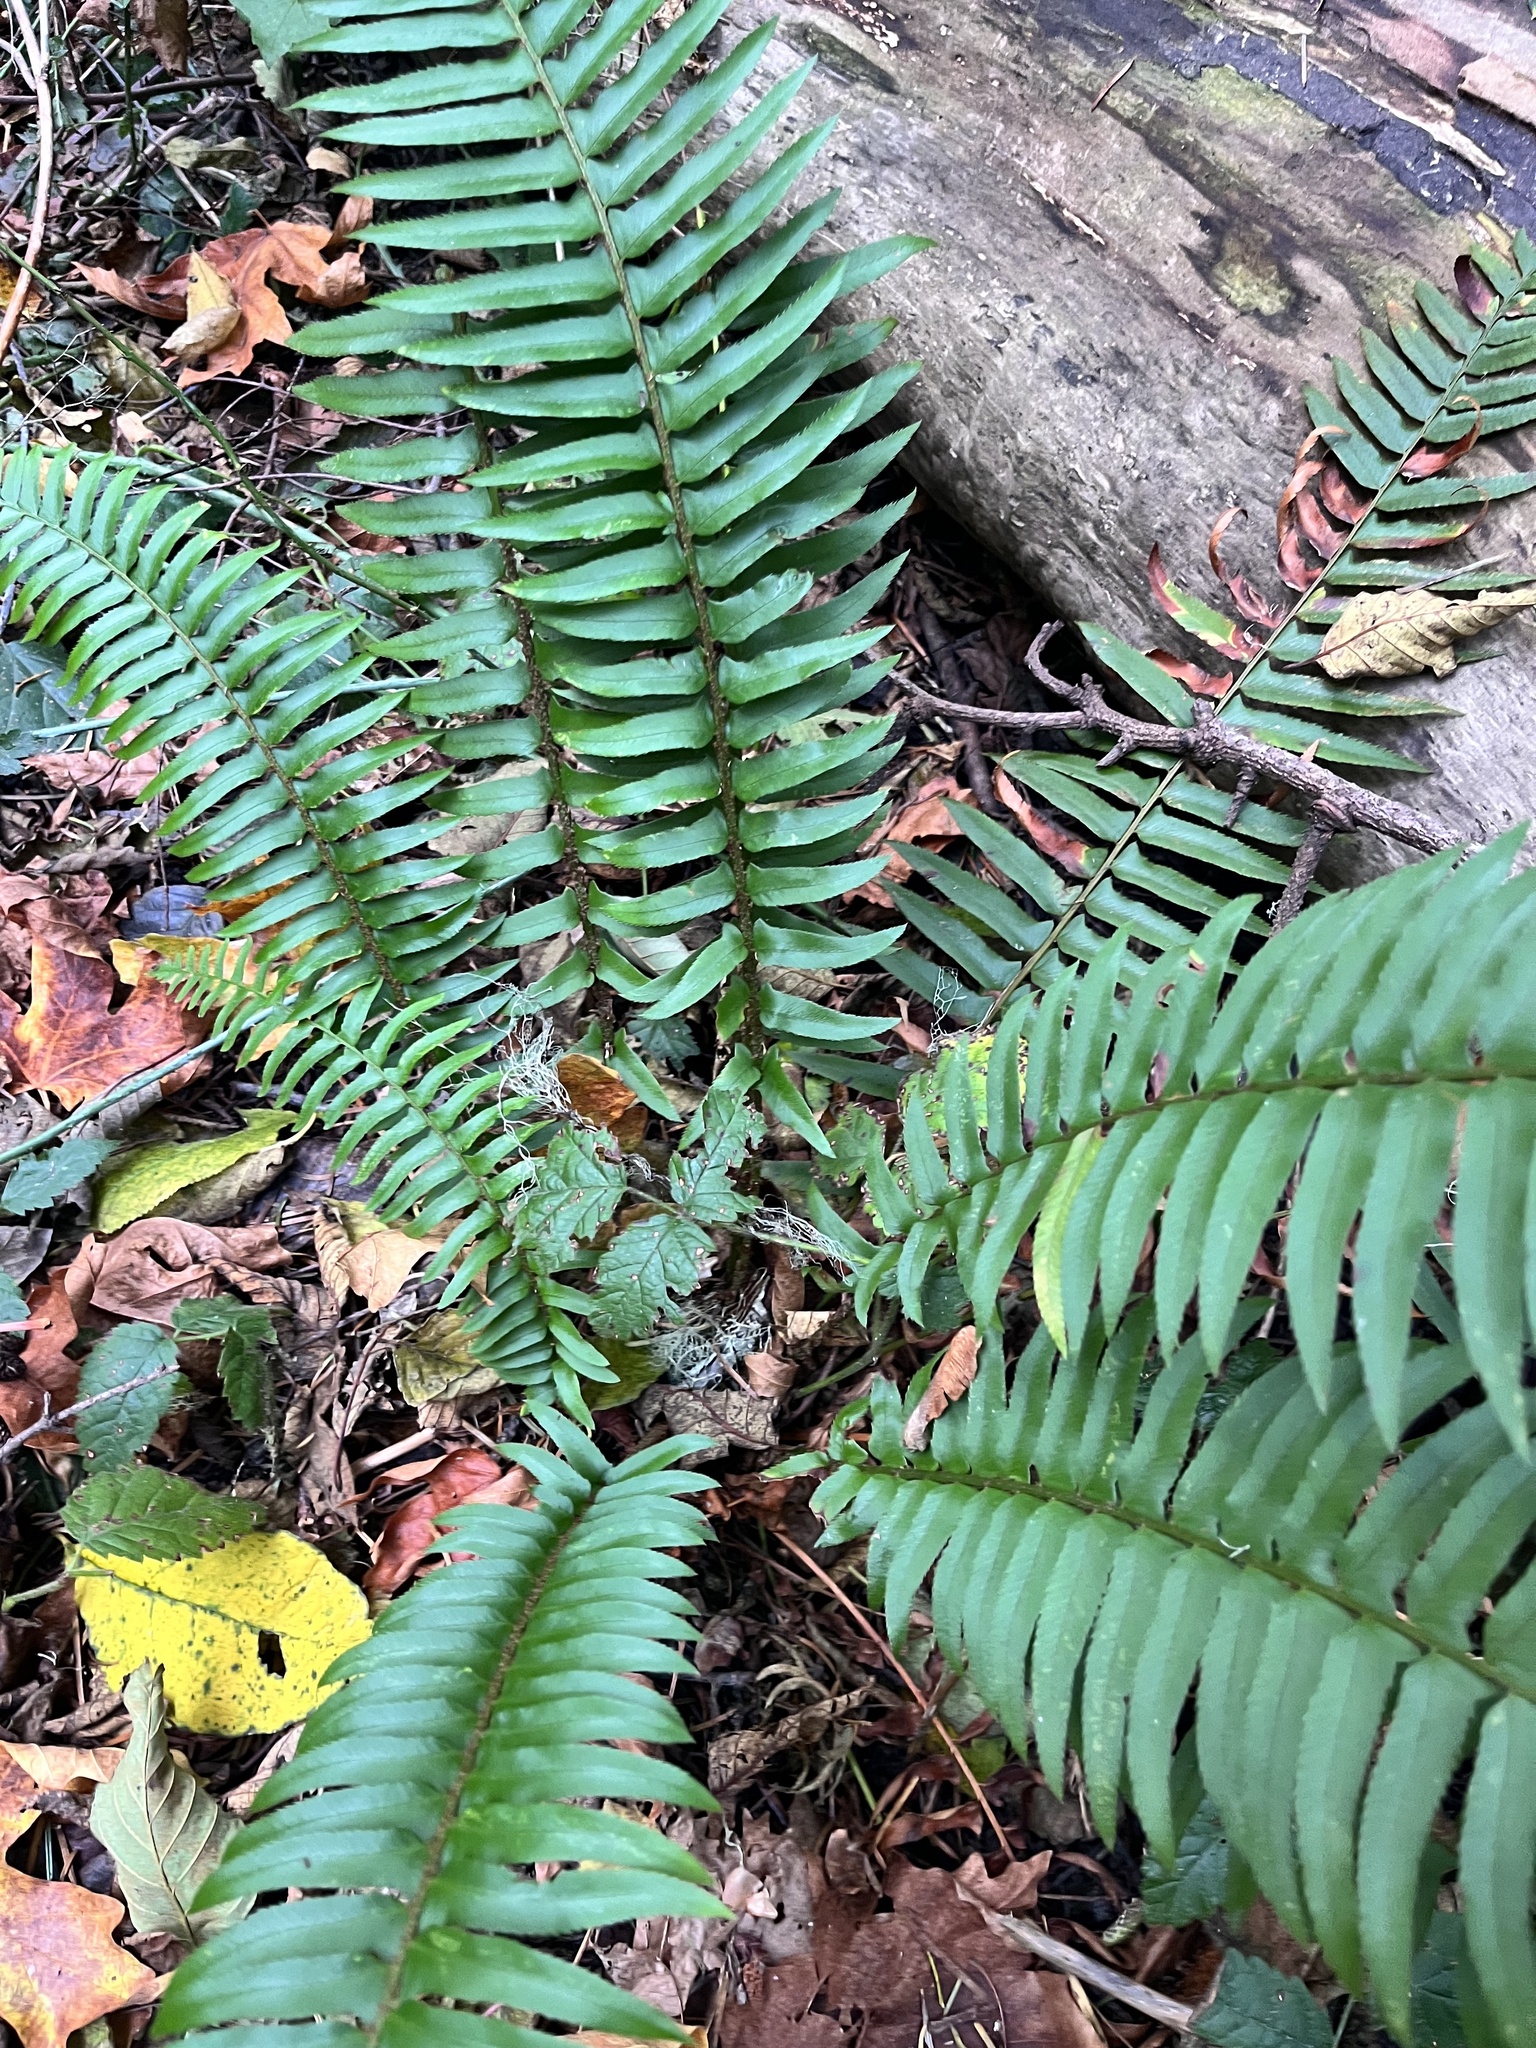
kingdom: Plantae
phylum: Tracheophyta
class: Polypodiopsida
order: Polypodiales
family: Dryopteridaceae
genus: Polystichum
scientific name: Polystichum munitum
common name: Western sword-fern
